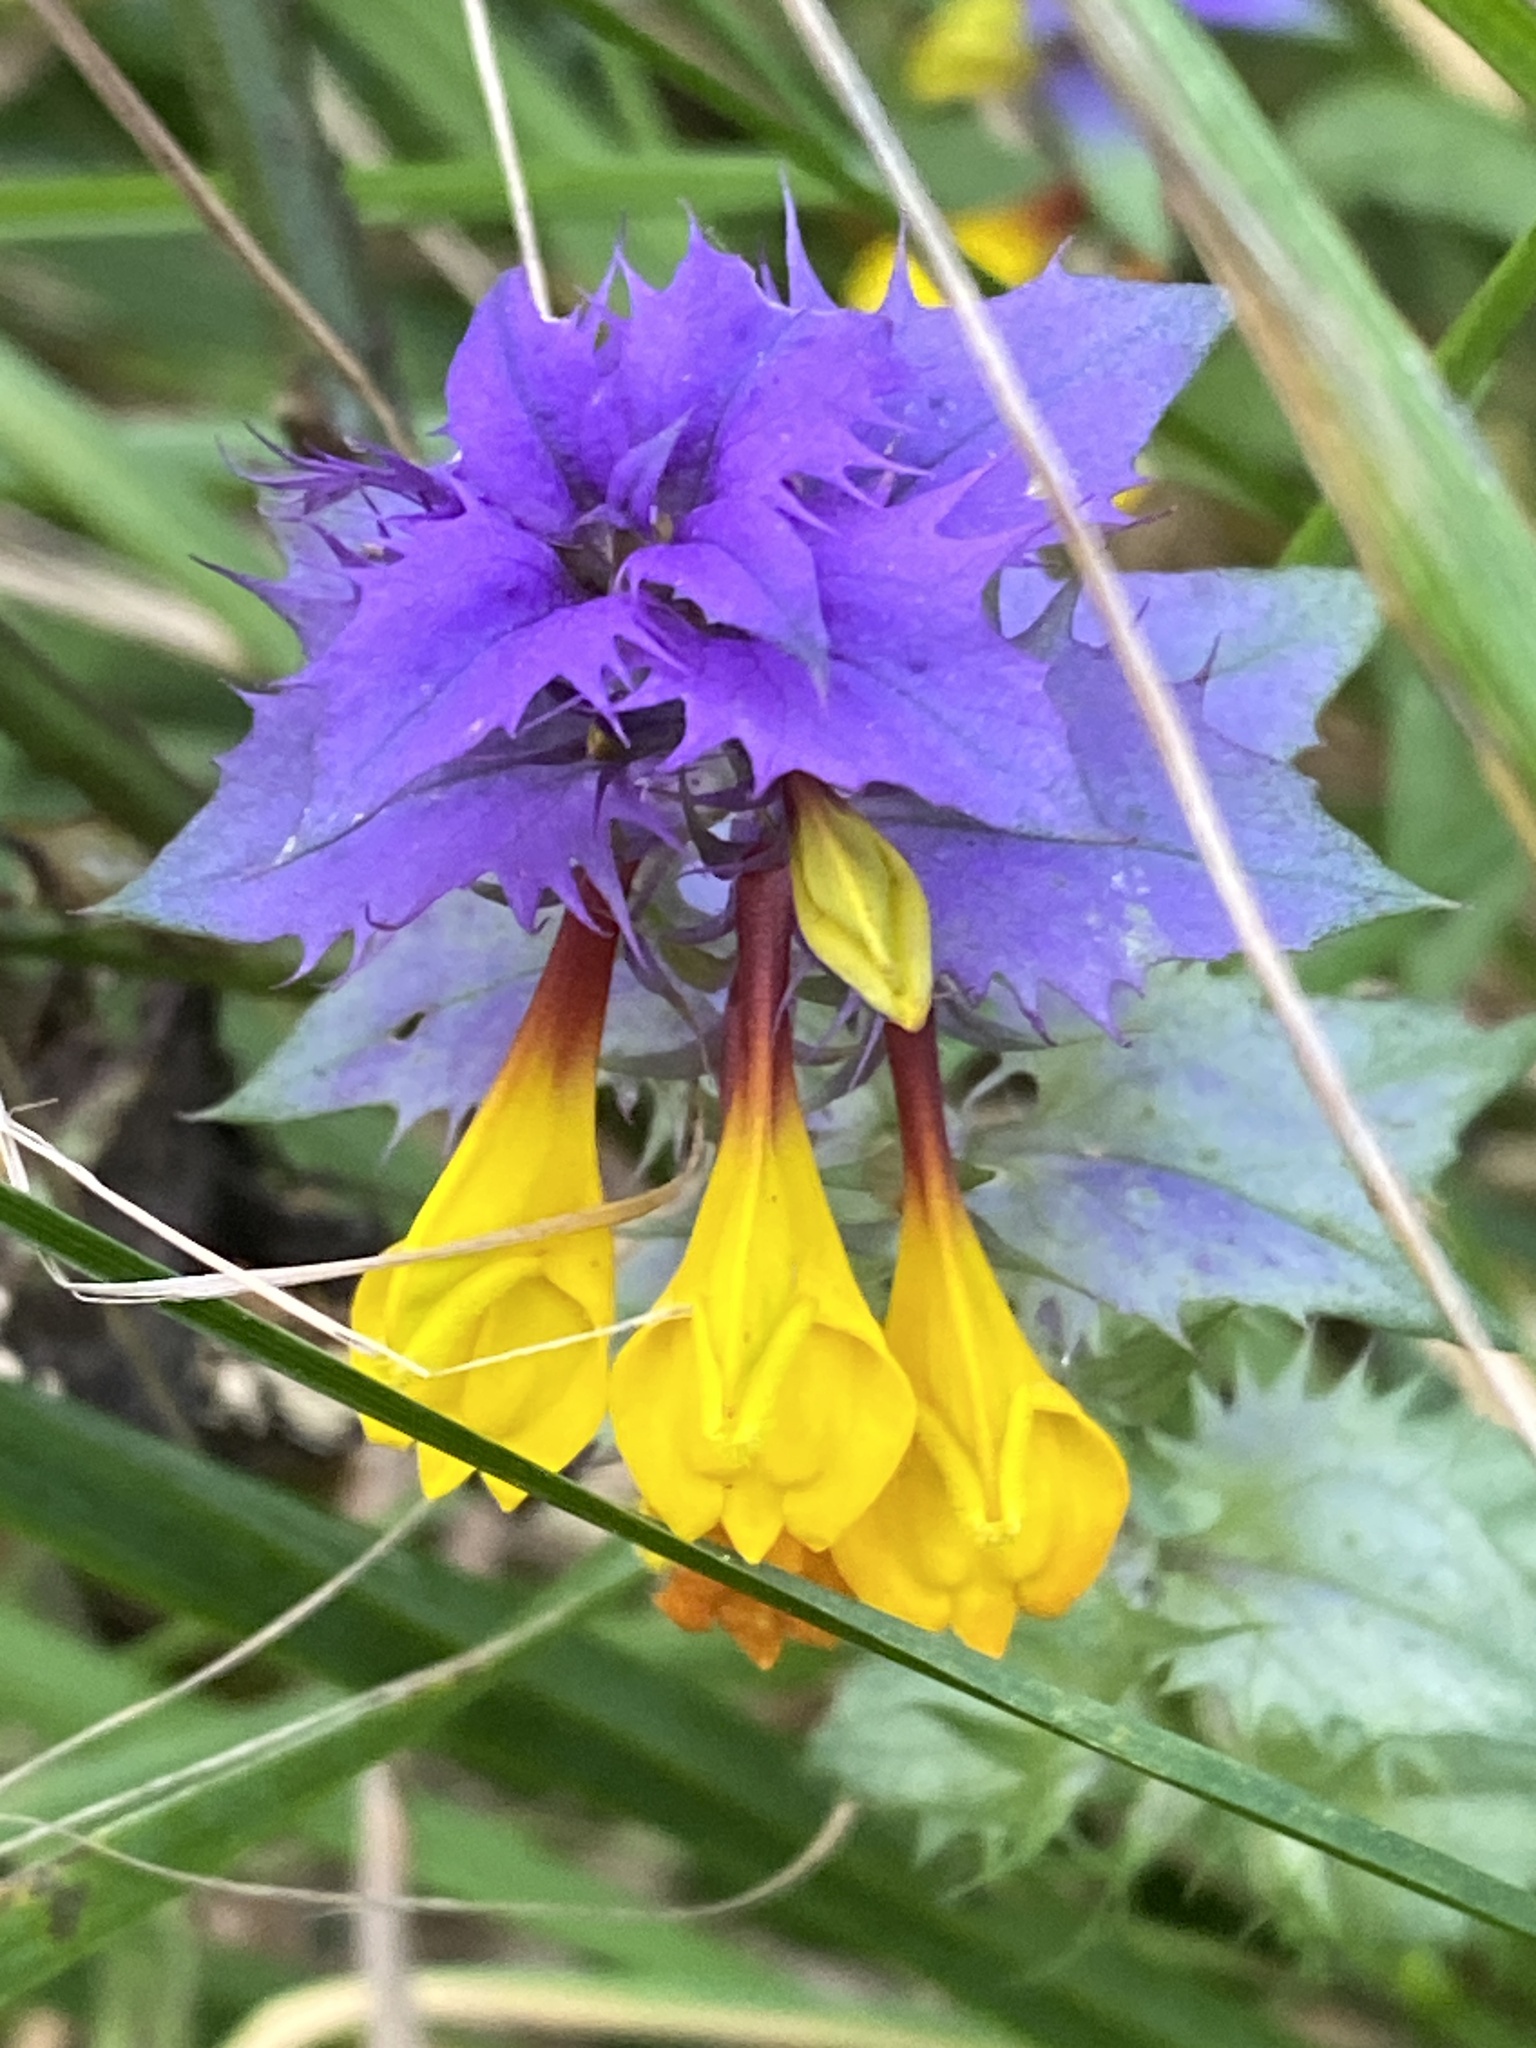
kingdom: Plantae
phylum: Tracheophyta
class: Magnoliopsida
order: Lamiales
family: Orobanchaceae
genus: Melampyrum
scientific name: Melampyrum nemorosum
